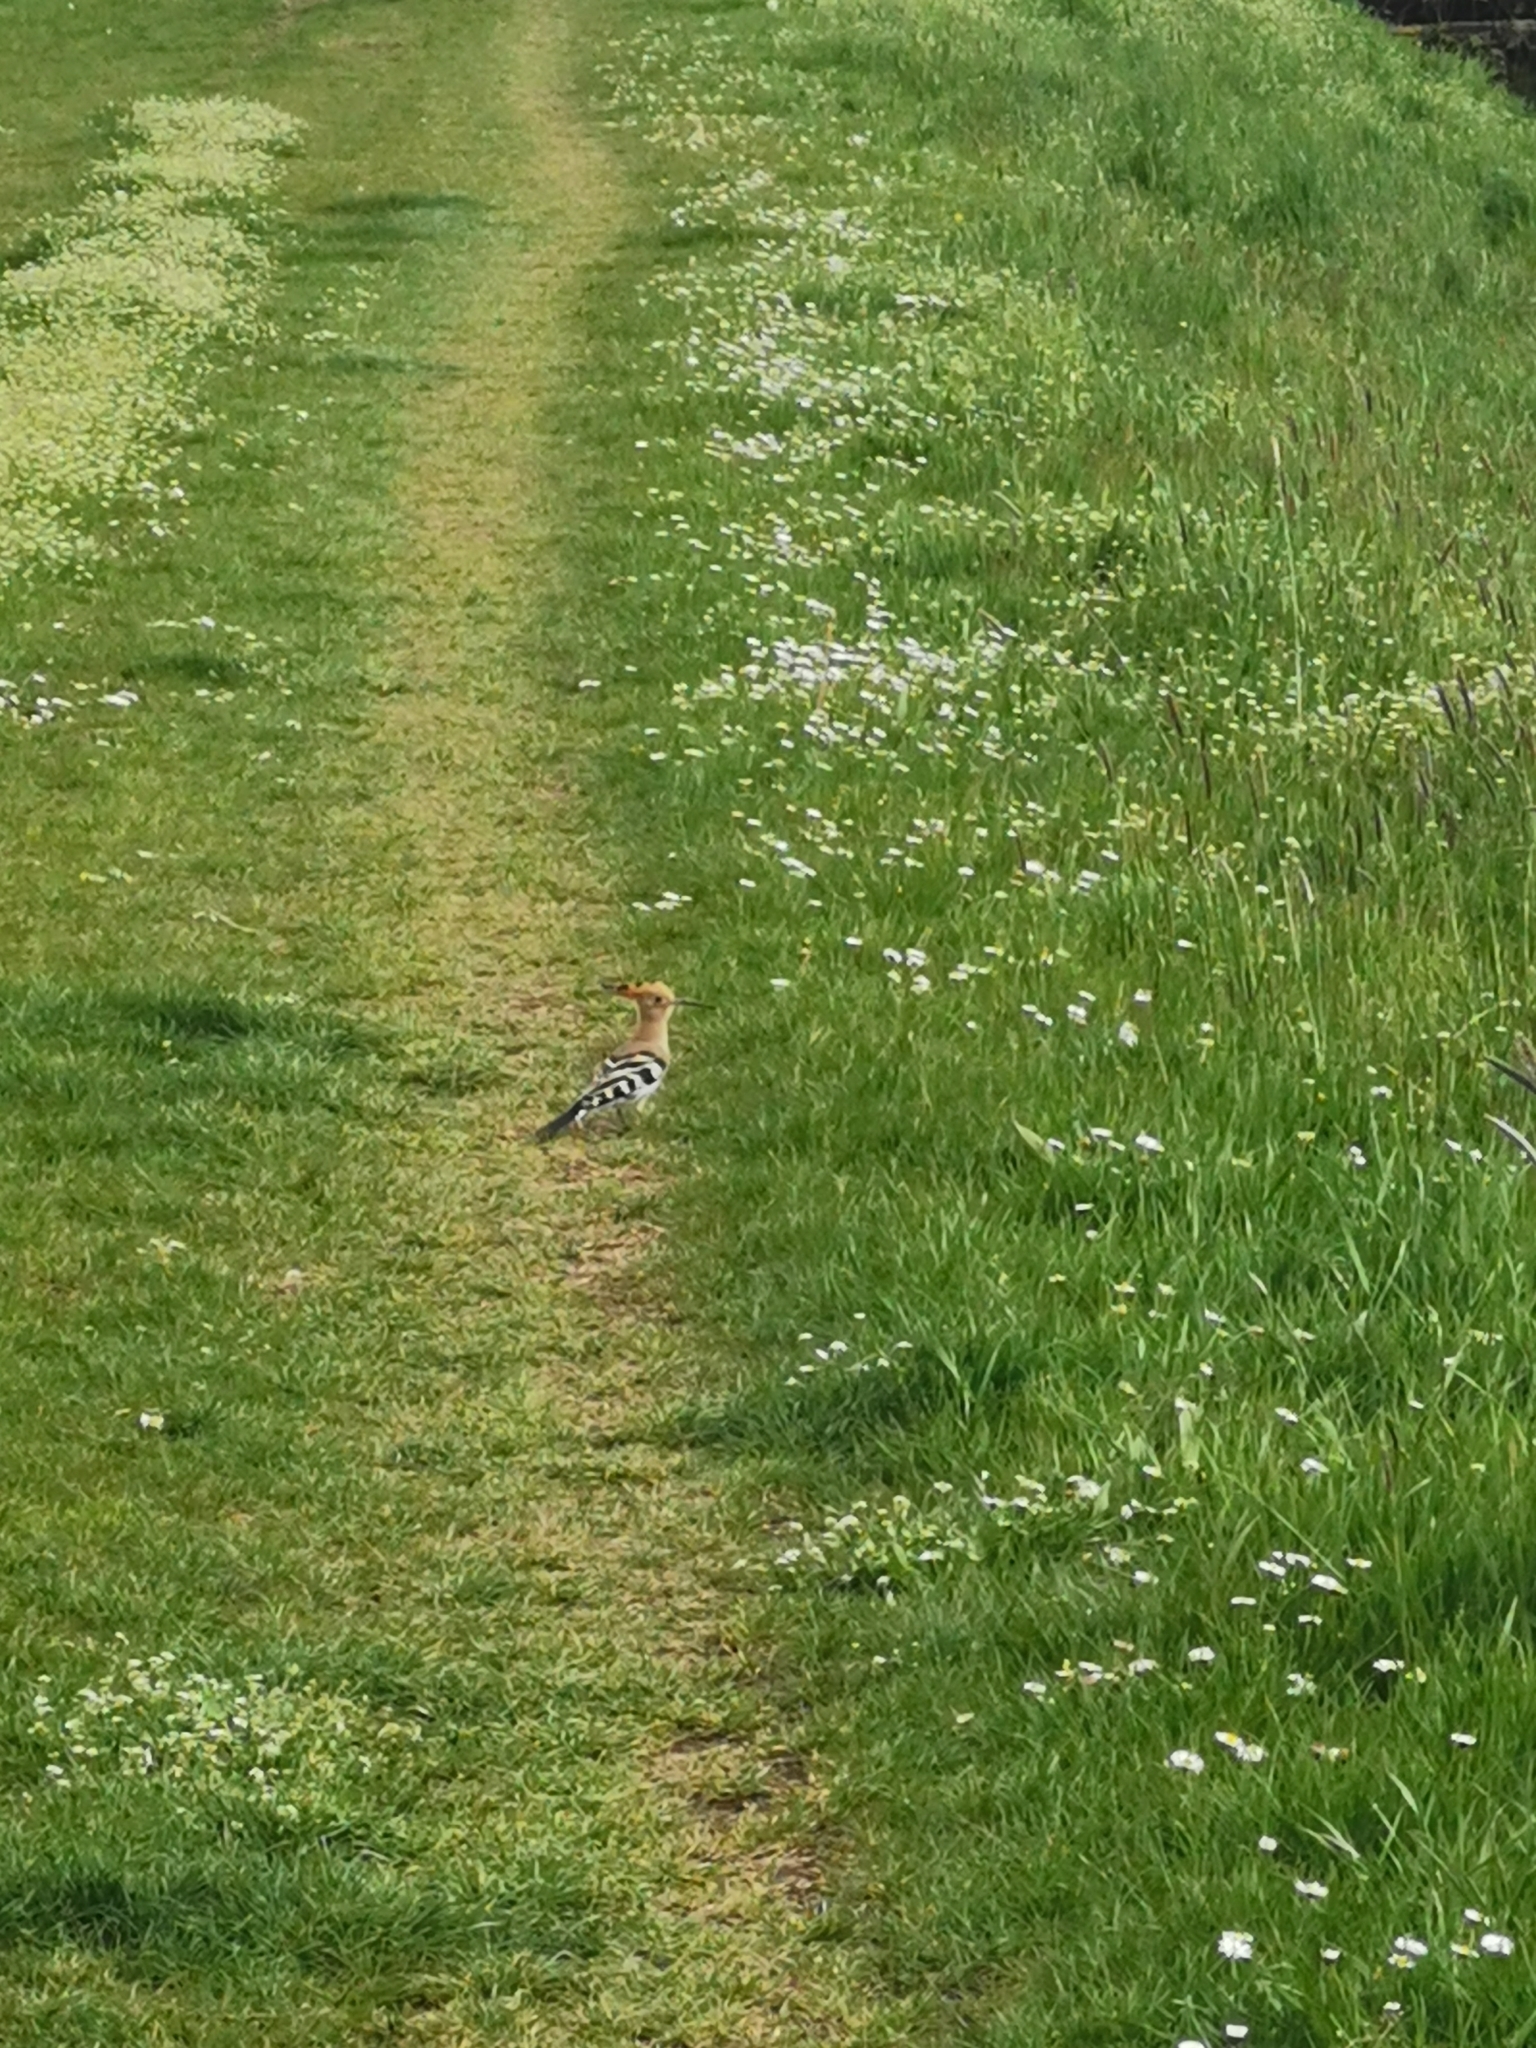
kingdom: Animalia
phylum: Chordata
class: Aves
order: Bucerotiformes
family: Upupidae
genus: Upupa
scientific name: Upupa epops
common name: Eurasian hoopoe
